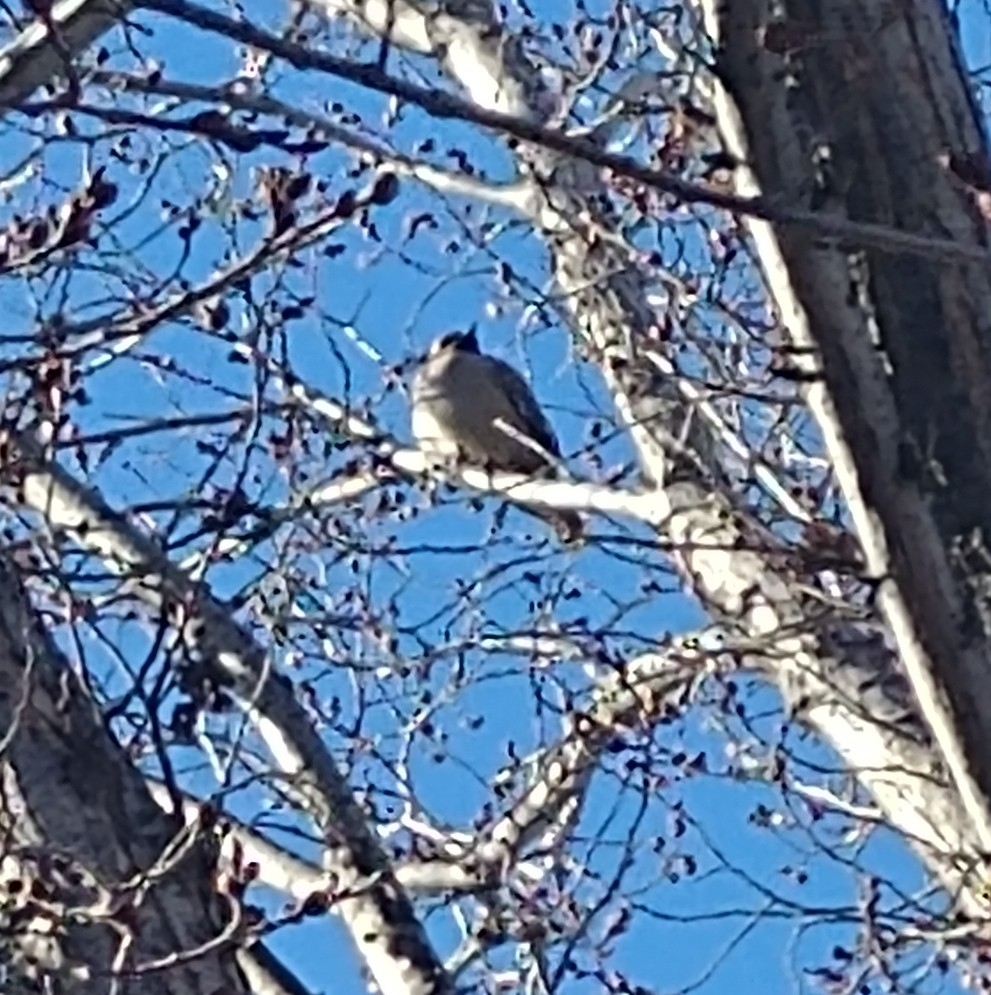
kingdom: Animalia
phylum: Chordata
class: Aves
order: Passeriformes
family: Bombycillidae
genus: Bombycilla
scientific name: Bombycilla garrulus
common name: Bohemian waxwing
